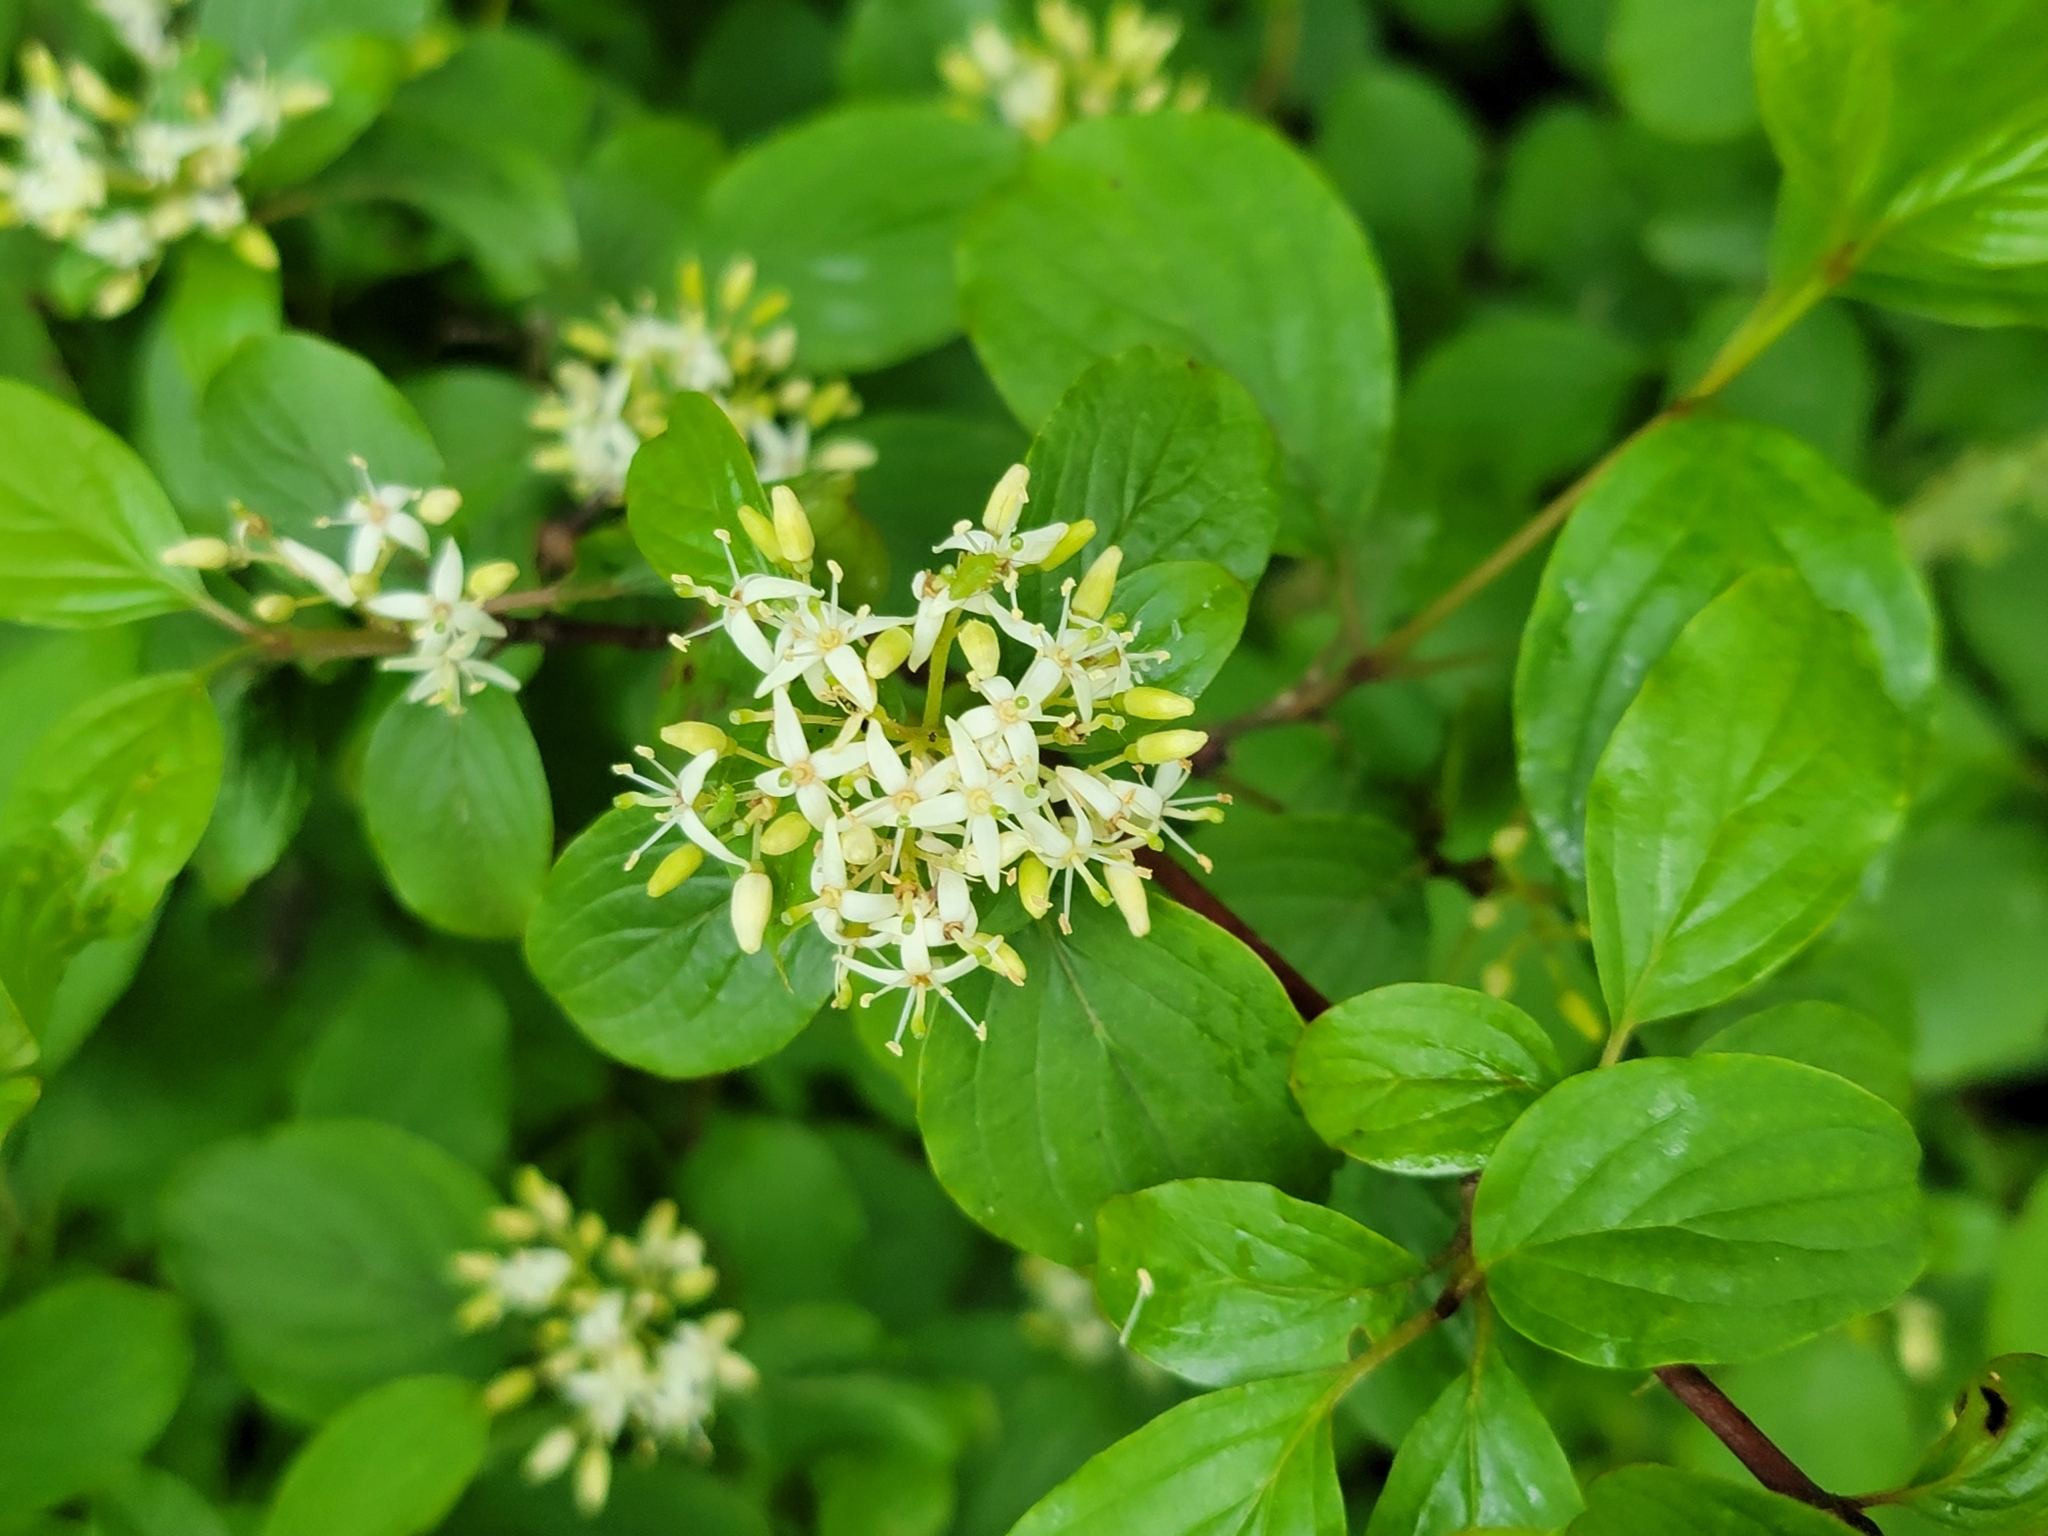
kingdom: Plantae
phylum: Tracheophyta
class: Magnoliopsida
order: Cornales
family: Cornaceae
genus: Cornus
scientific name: Cornus sanguinea
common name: Dogwood
